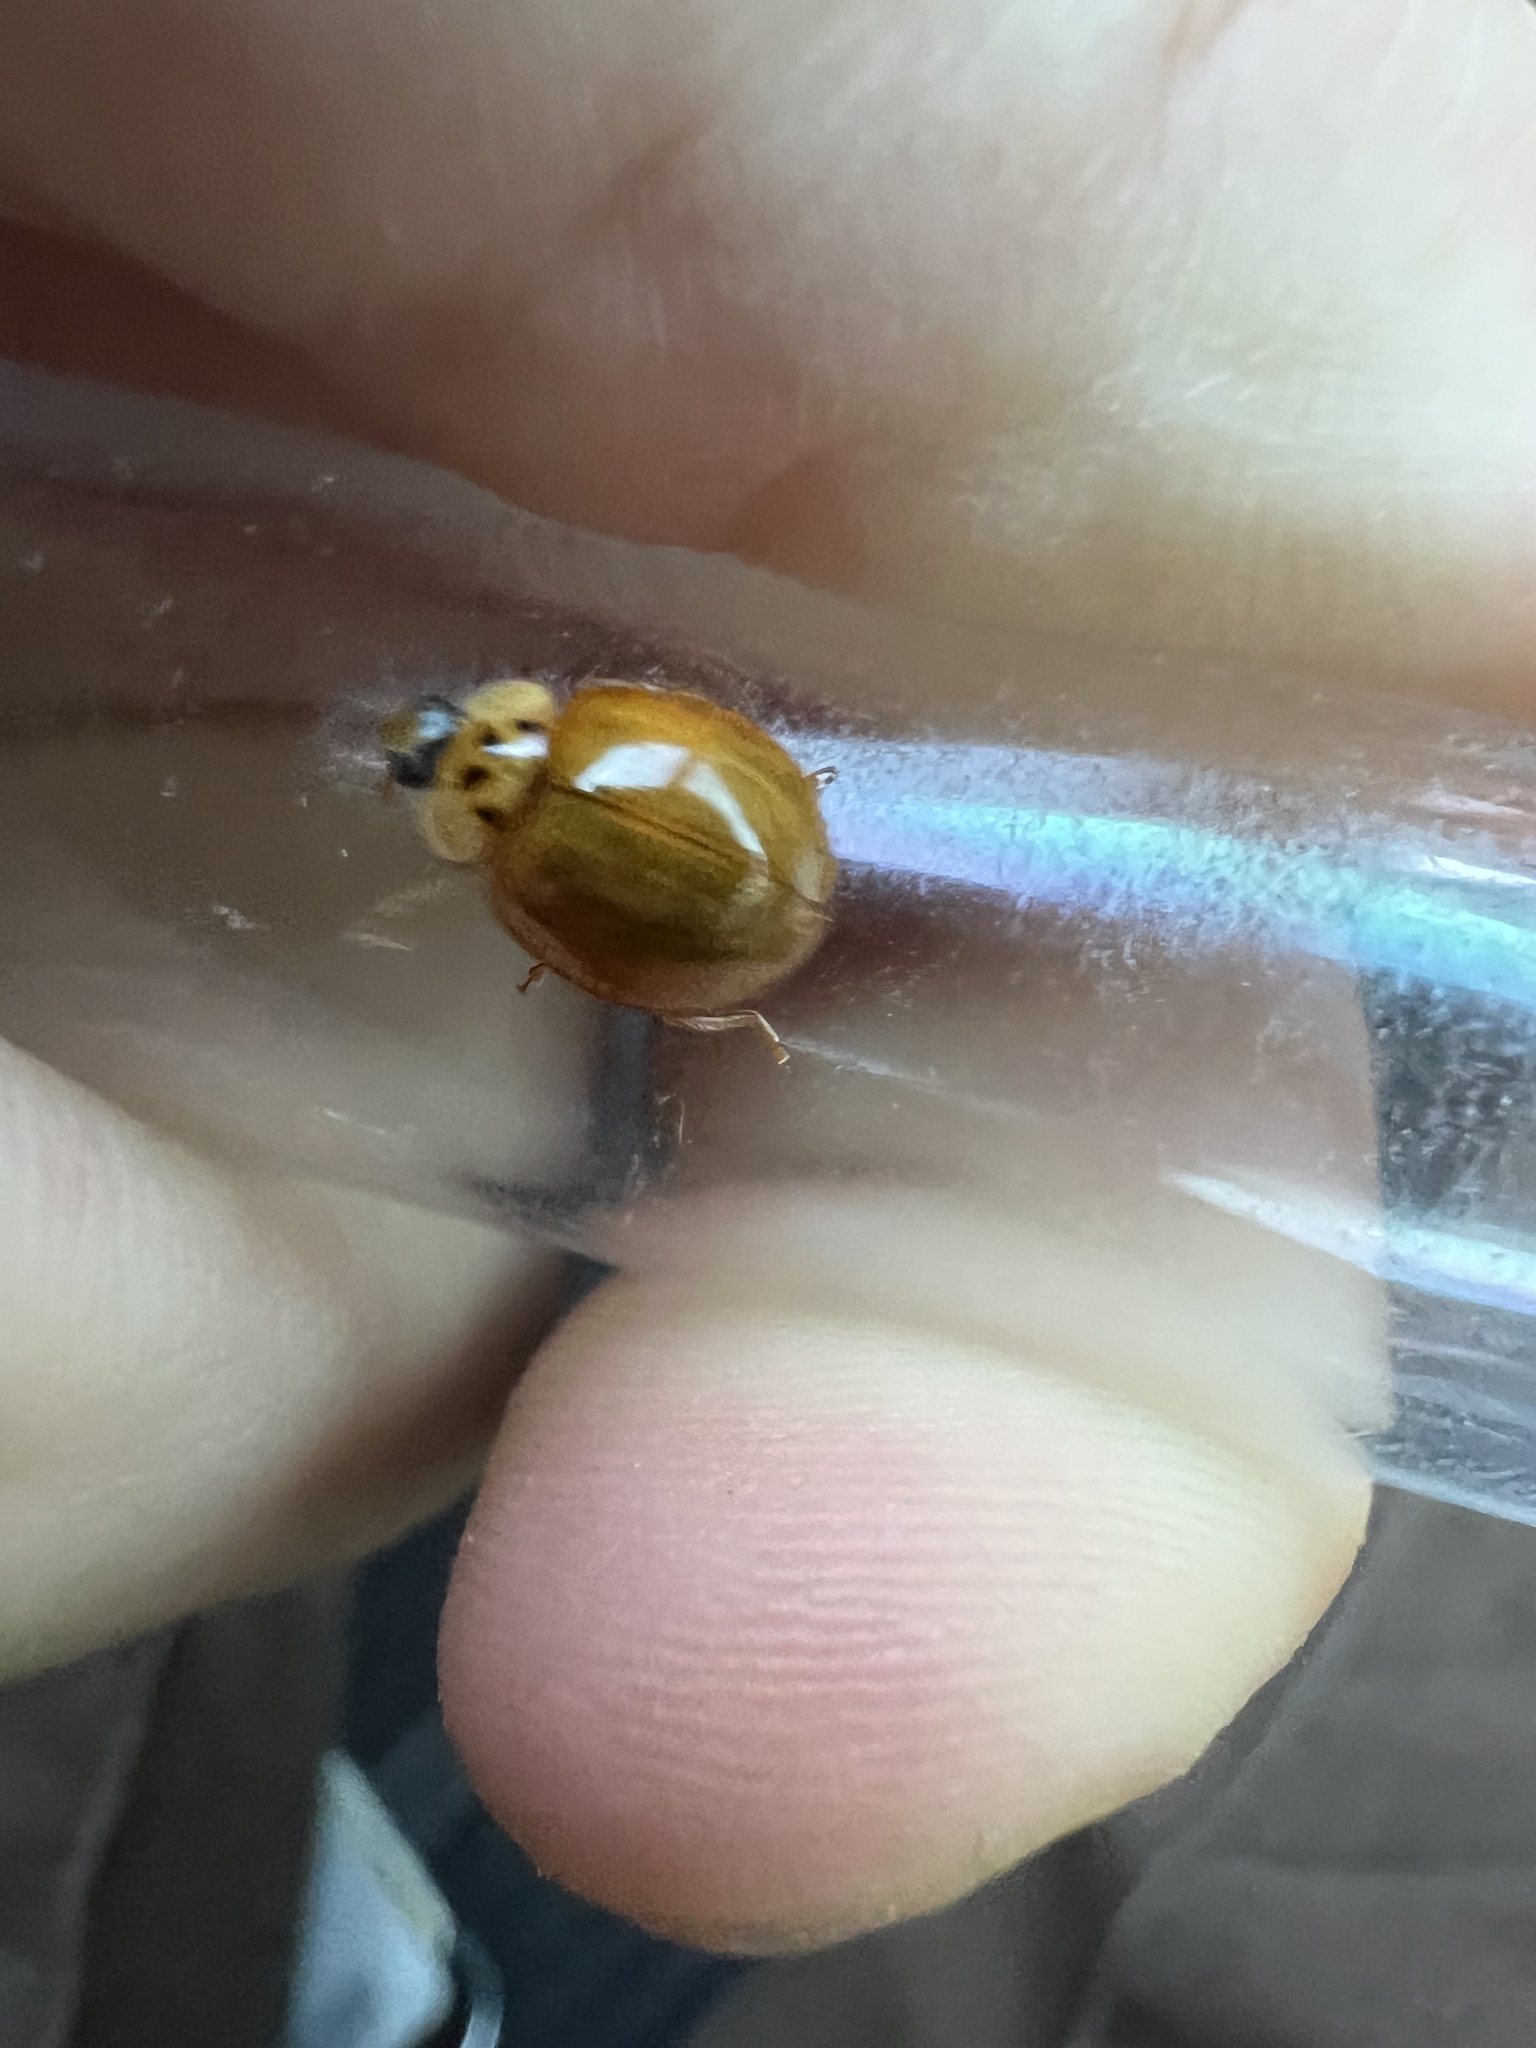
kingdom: Animalia
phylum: Arthropoda
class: Insecta
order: Coleoptera
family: Coccinellidae
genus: Harmonia
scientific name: Harmonia axyridis
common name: Harlequin ladybird
